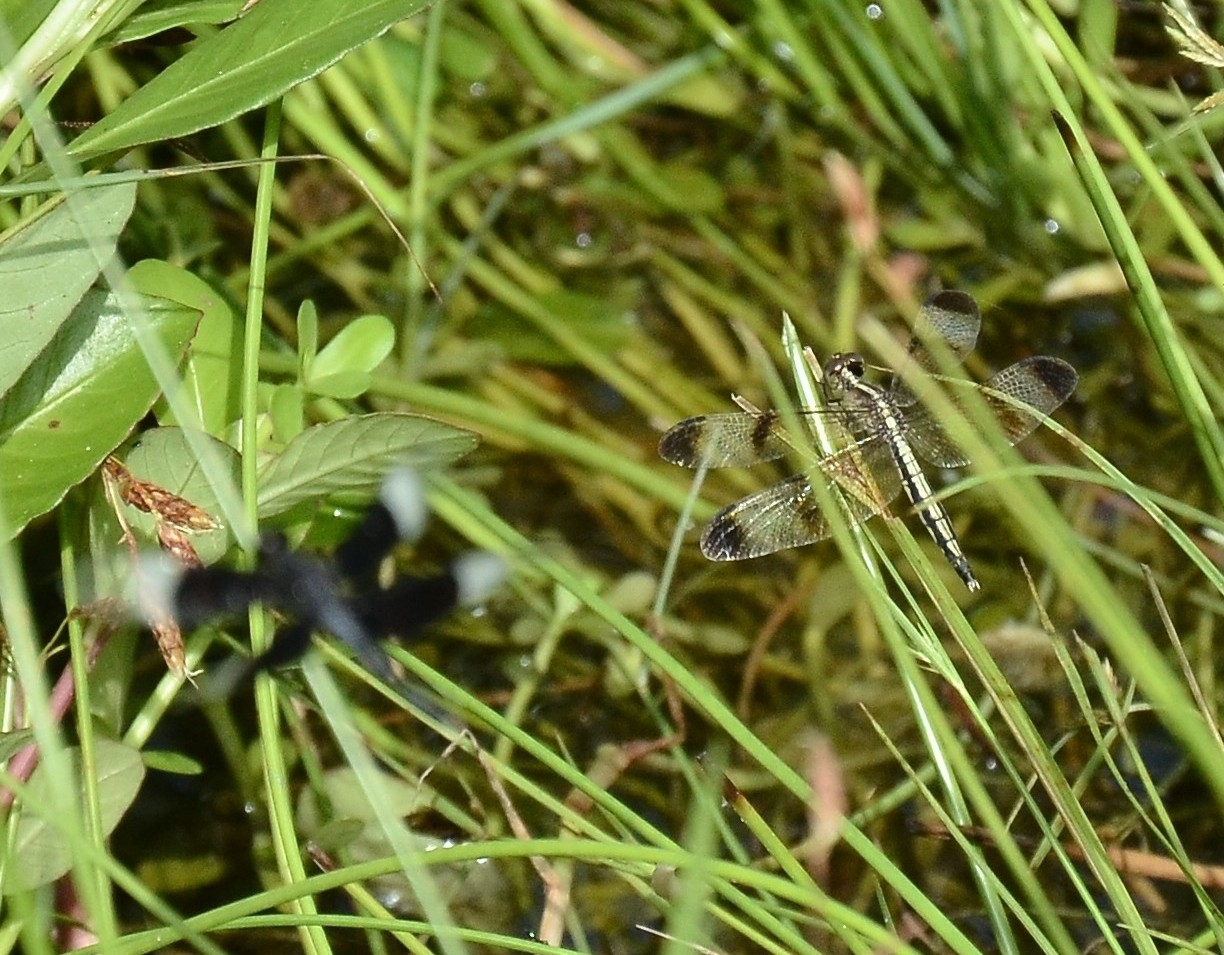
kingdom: Animalia
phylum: Arthropoda
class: Insecta
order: Odonata
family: Libellulidae
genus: Neurothemis
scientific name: Neurothemis tullia
